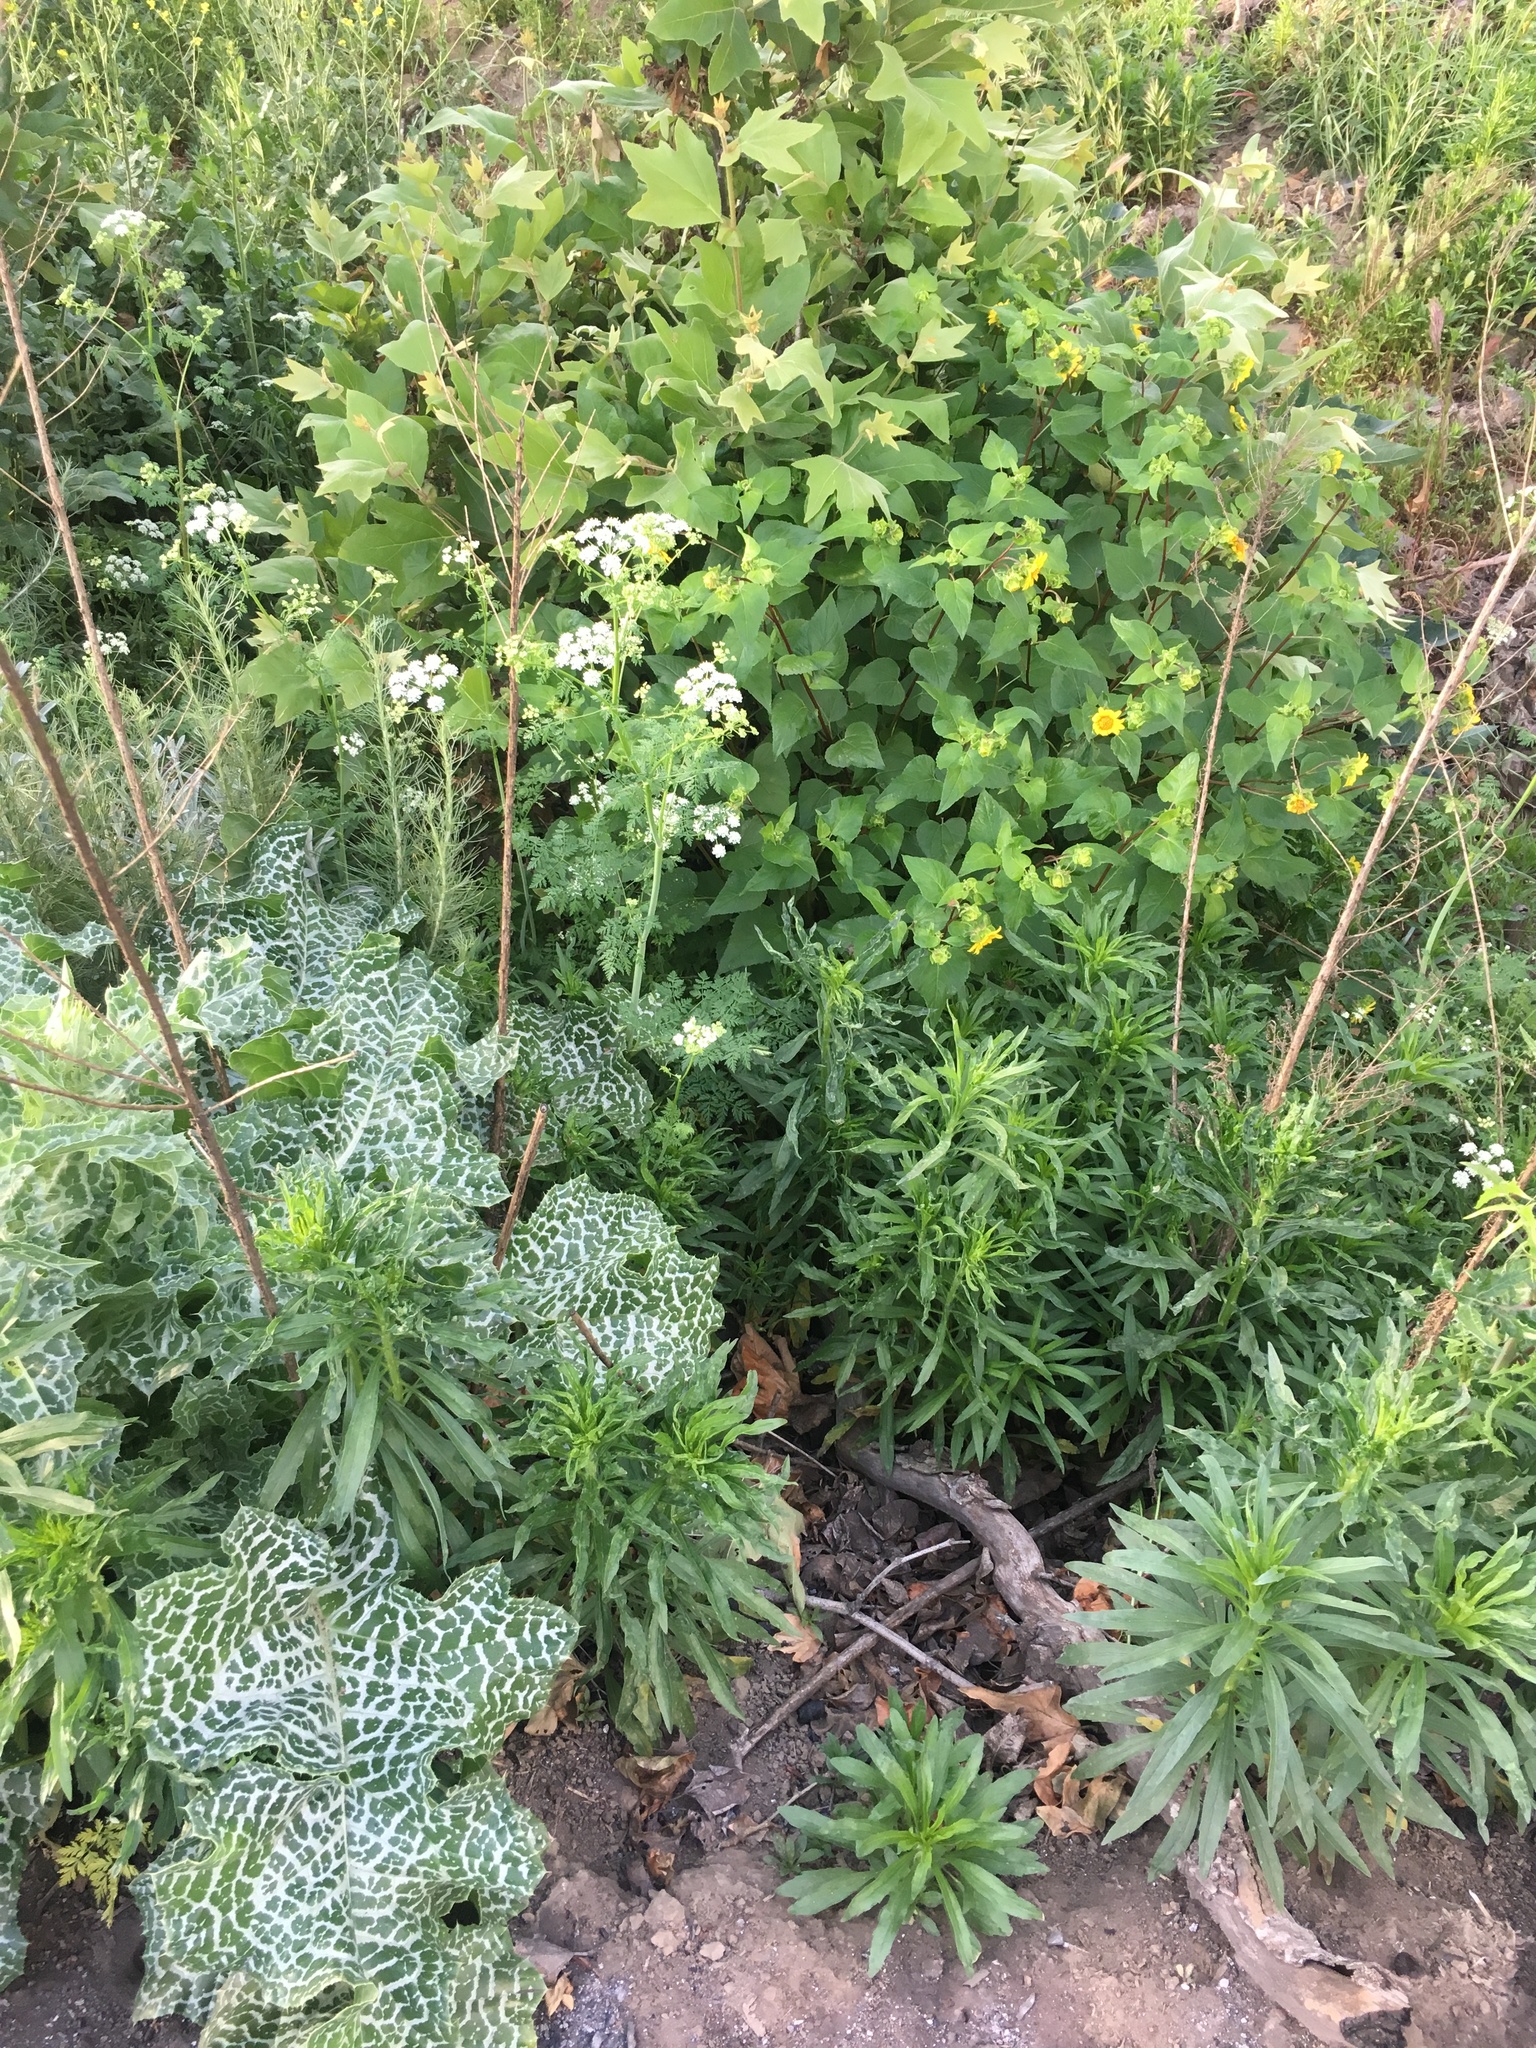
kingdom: Plantae
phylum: Tracheophyta
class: Magnoliopsida
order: Asterales
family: Asteraceae
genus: Silybum
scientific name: Silybum marianum
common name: Milk thistle
